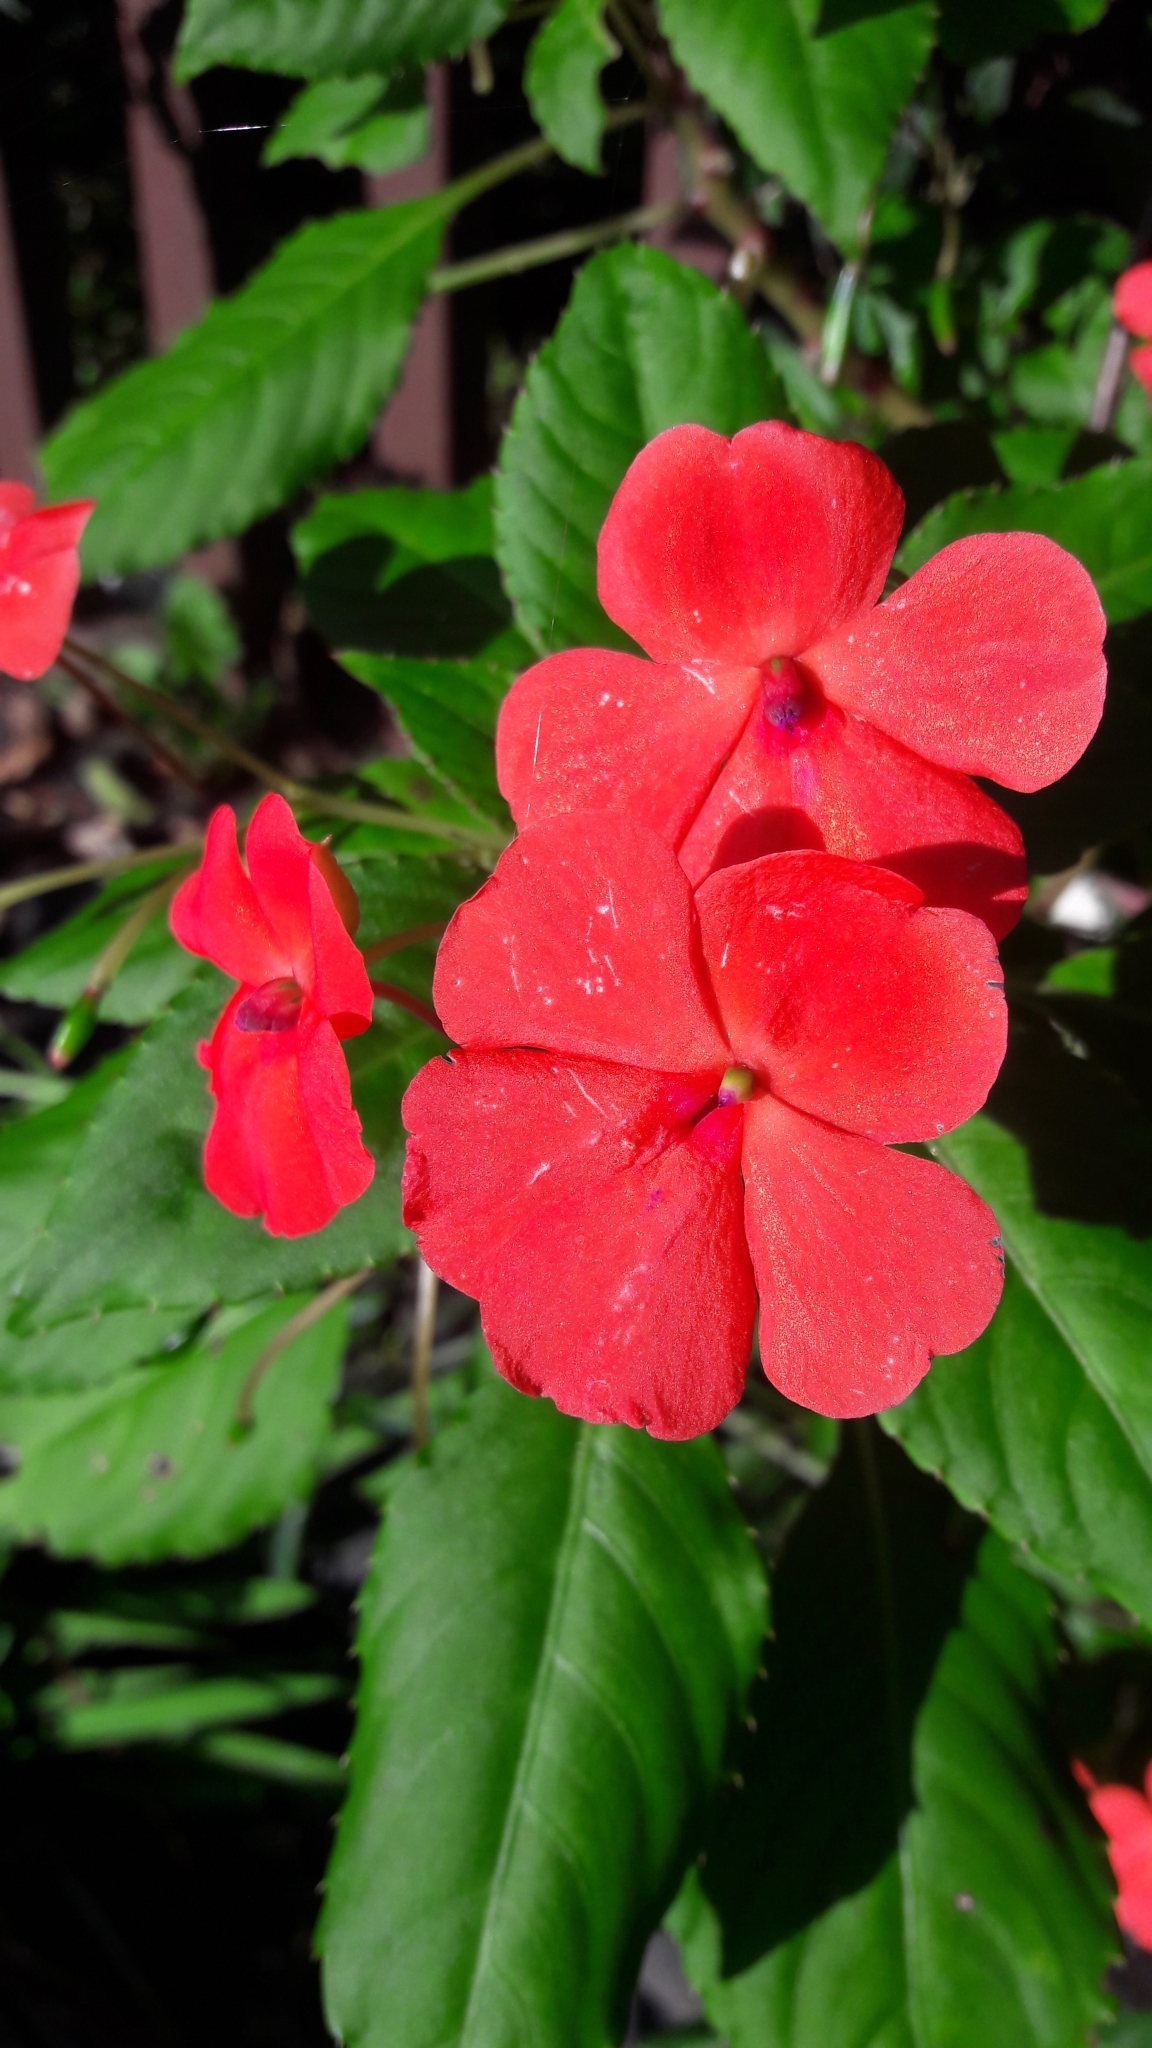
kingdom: Plantae
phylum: Tracheophyta
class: Magnoliopsida
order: Ericales
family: Balsaminaceae
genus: Impatiens
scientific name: Impatiens walleriana
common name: Buzzy lizzy
